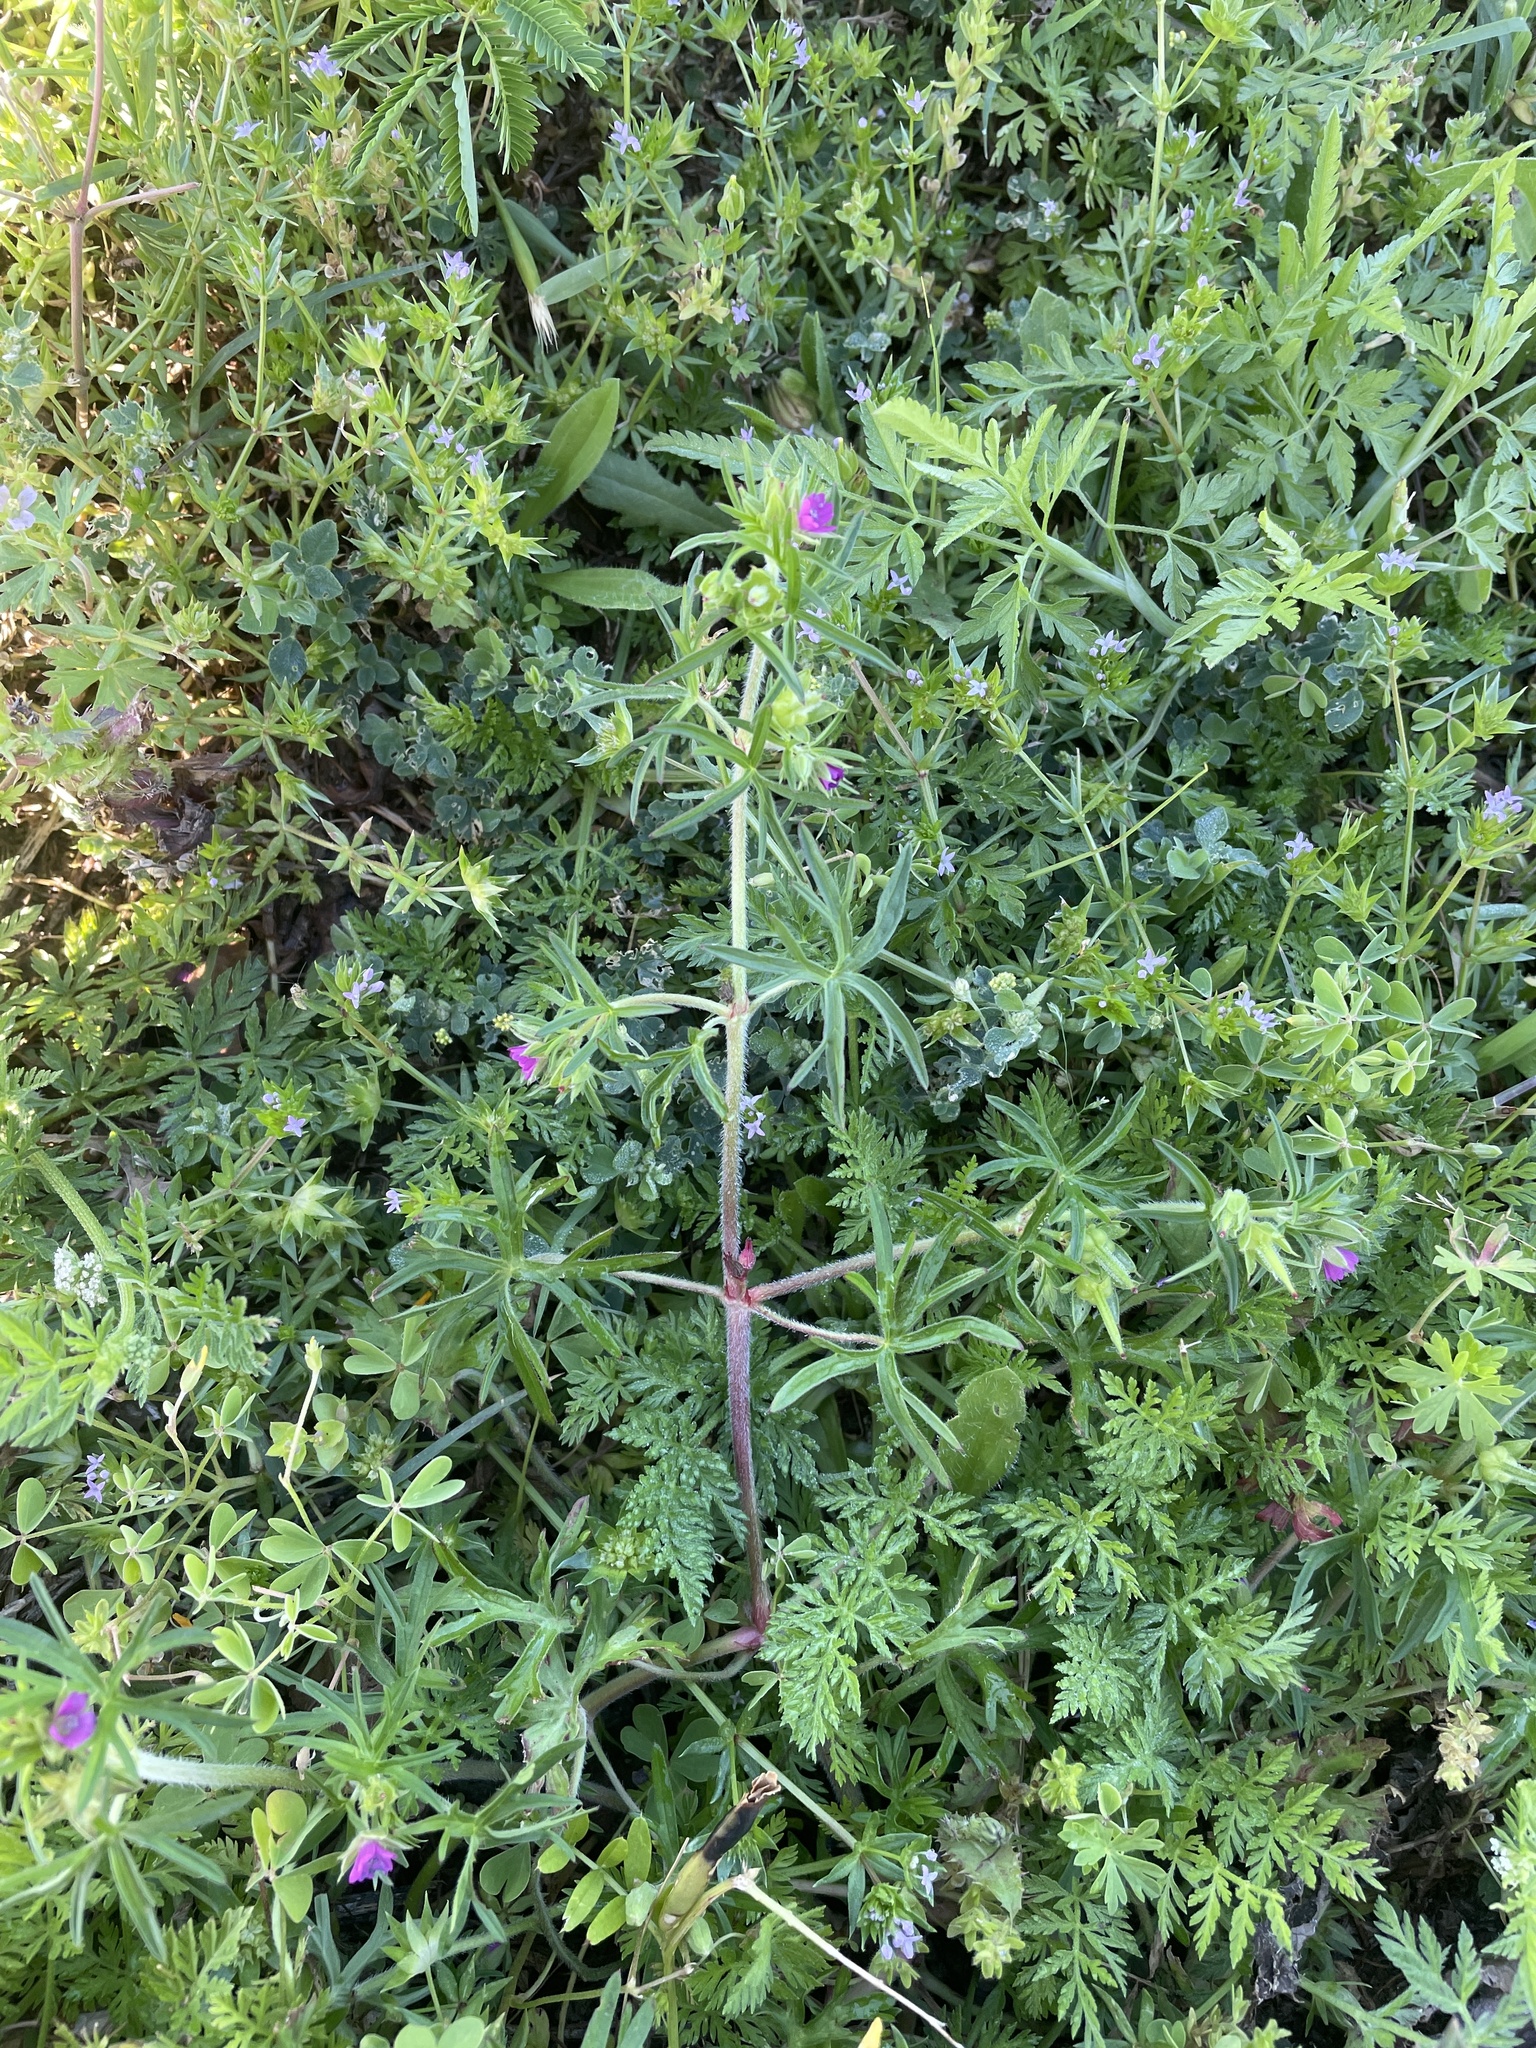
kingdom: Plantae
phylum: Tracheophyta
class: Magnoliopsida
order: Geraniales
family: Geraniaceae
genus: Geranium
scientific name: Geranium dissectum
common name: Cut-leaved crane's-bill
